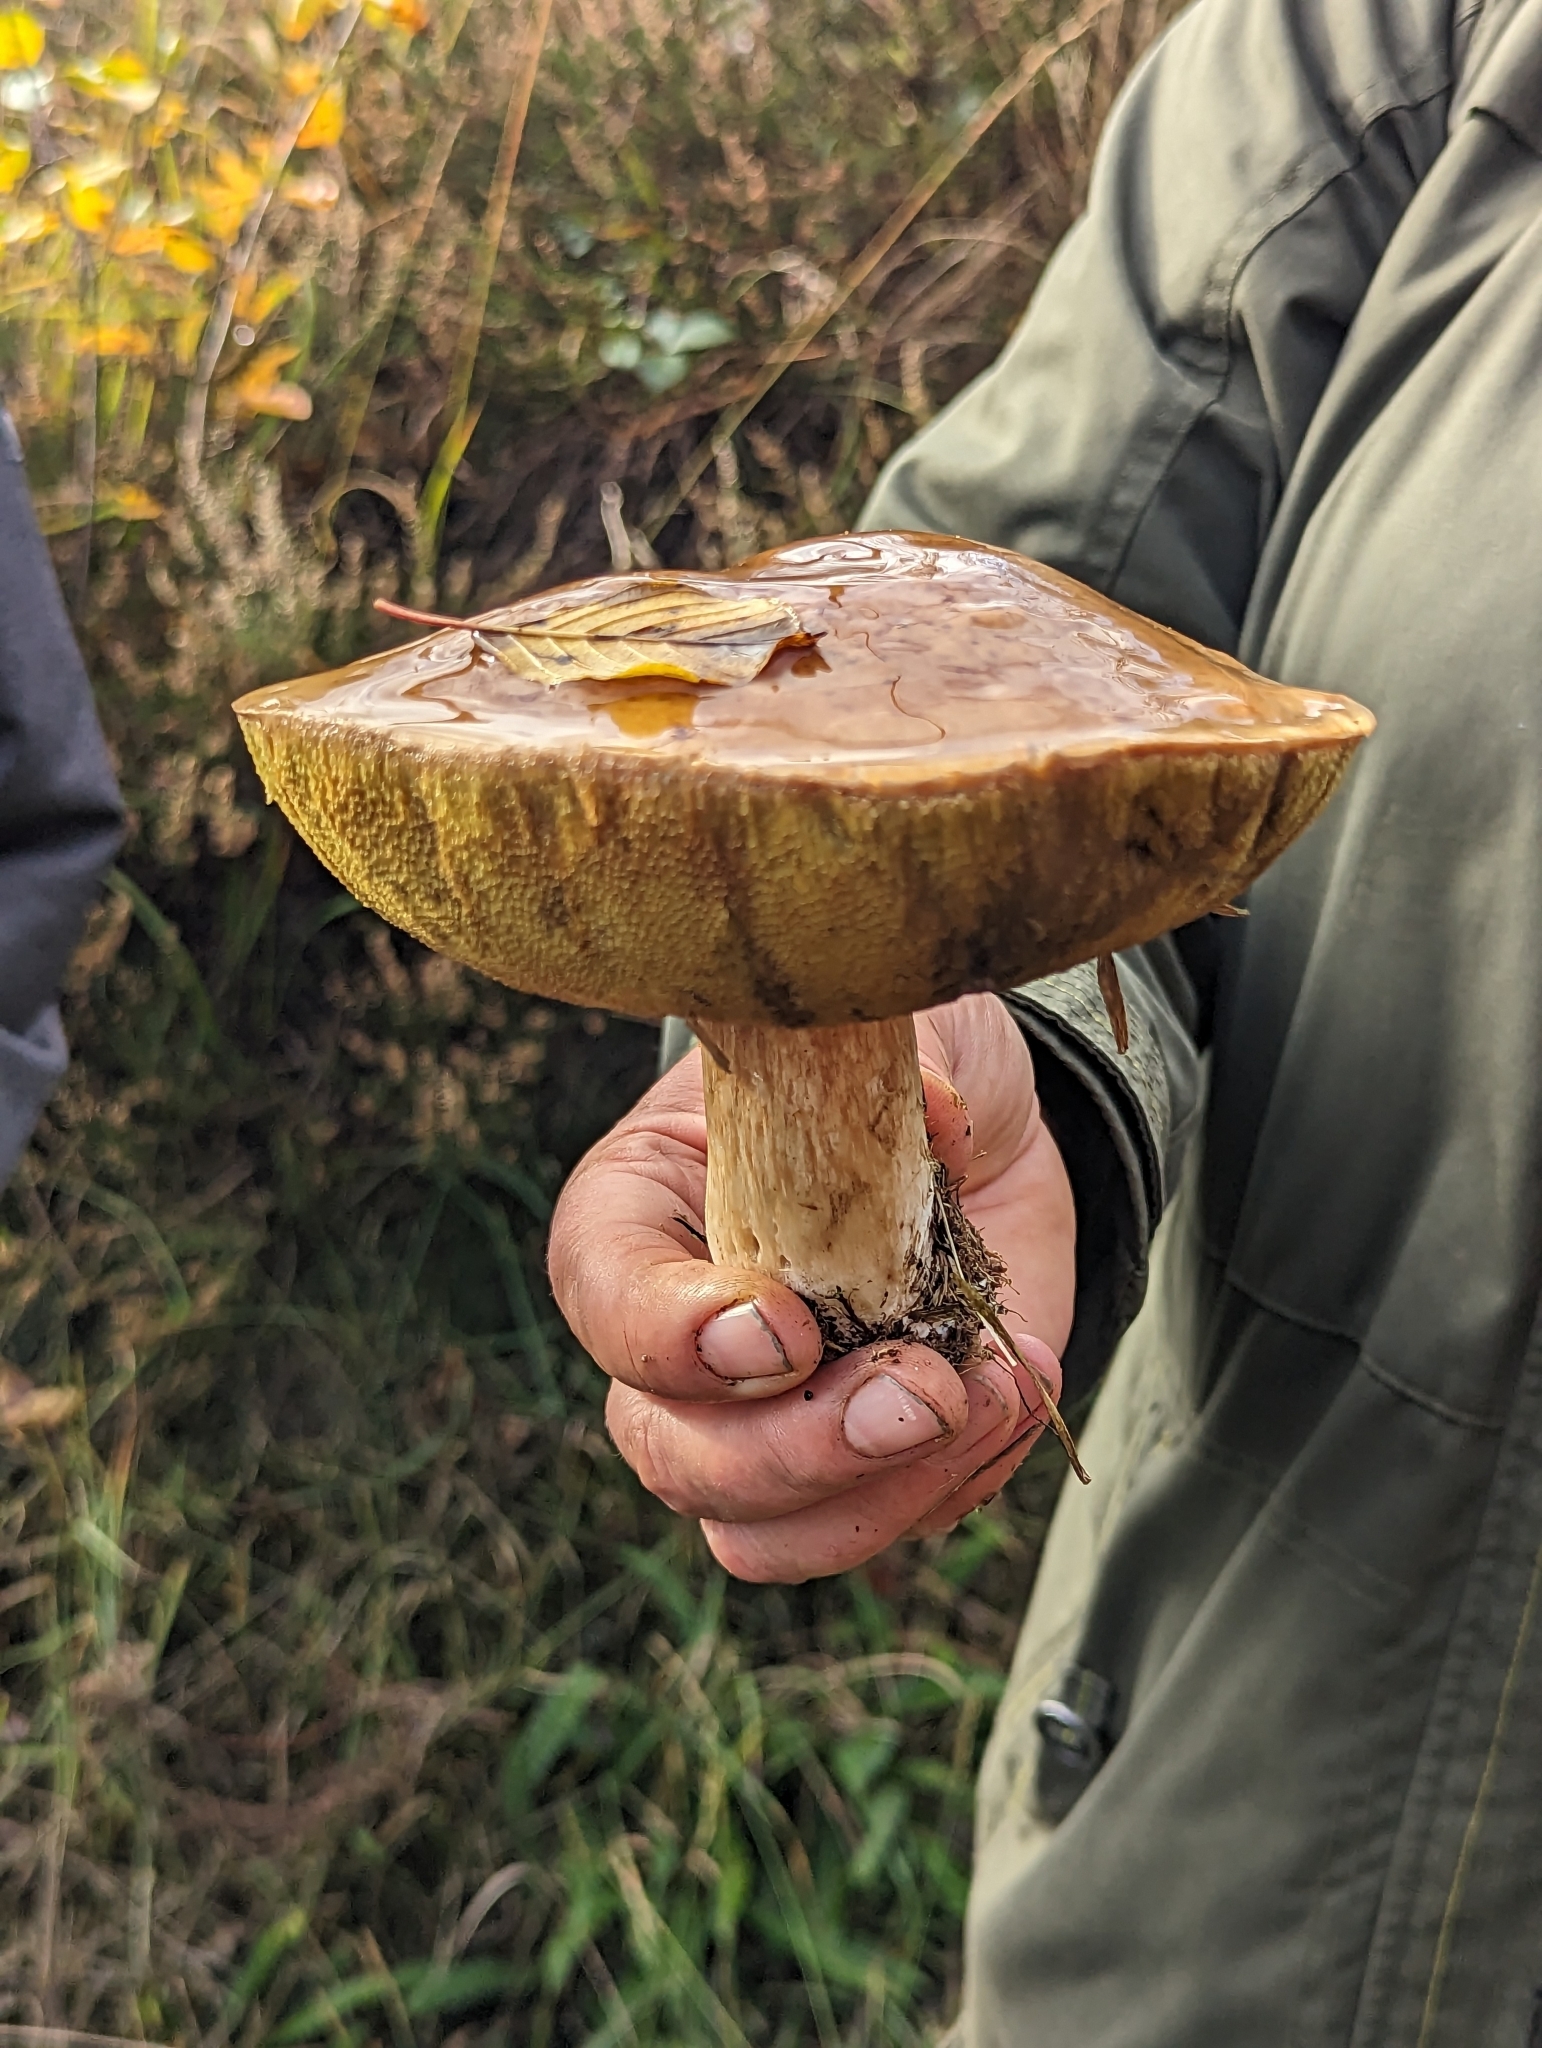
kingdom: Fungi
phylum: Basidiomycota
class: Agaricomycetes
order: Boletales
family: Boletaceae
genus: Boletus
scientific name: Boletus edulis
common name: Cep
